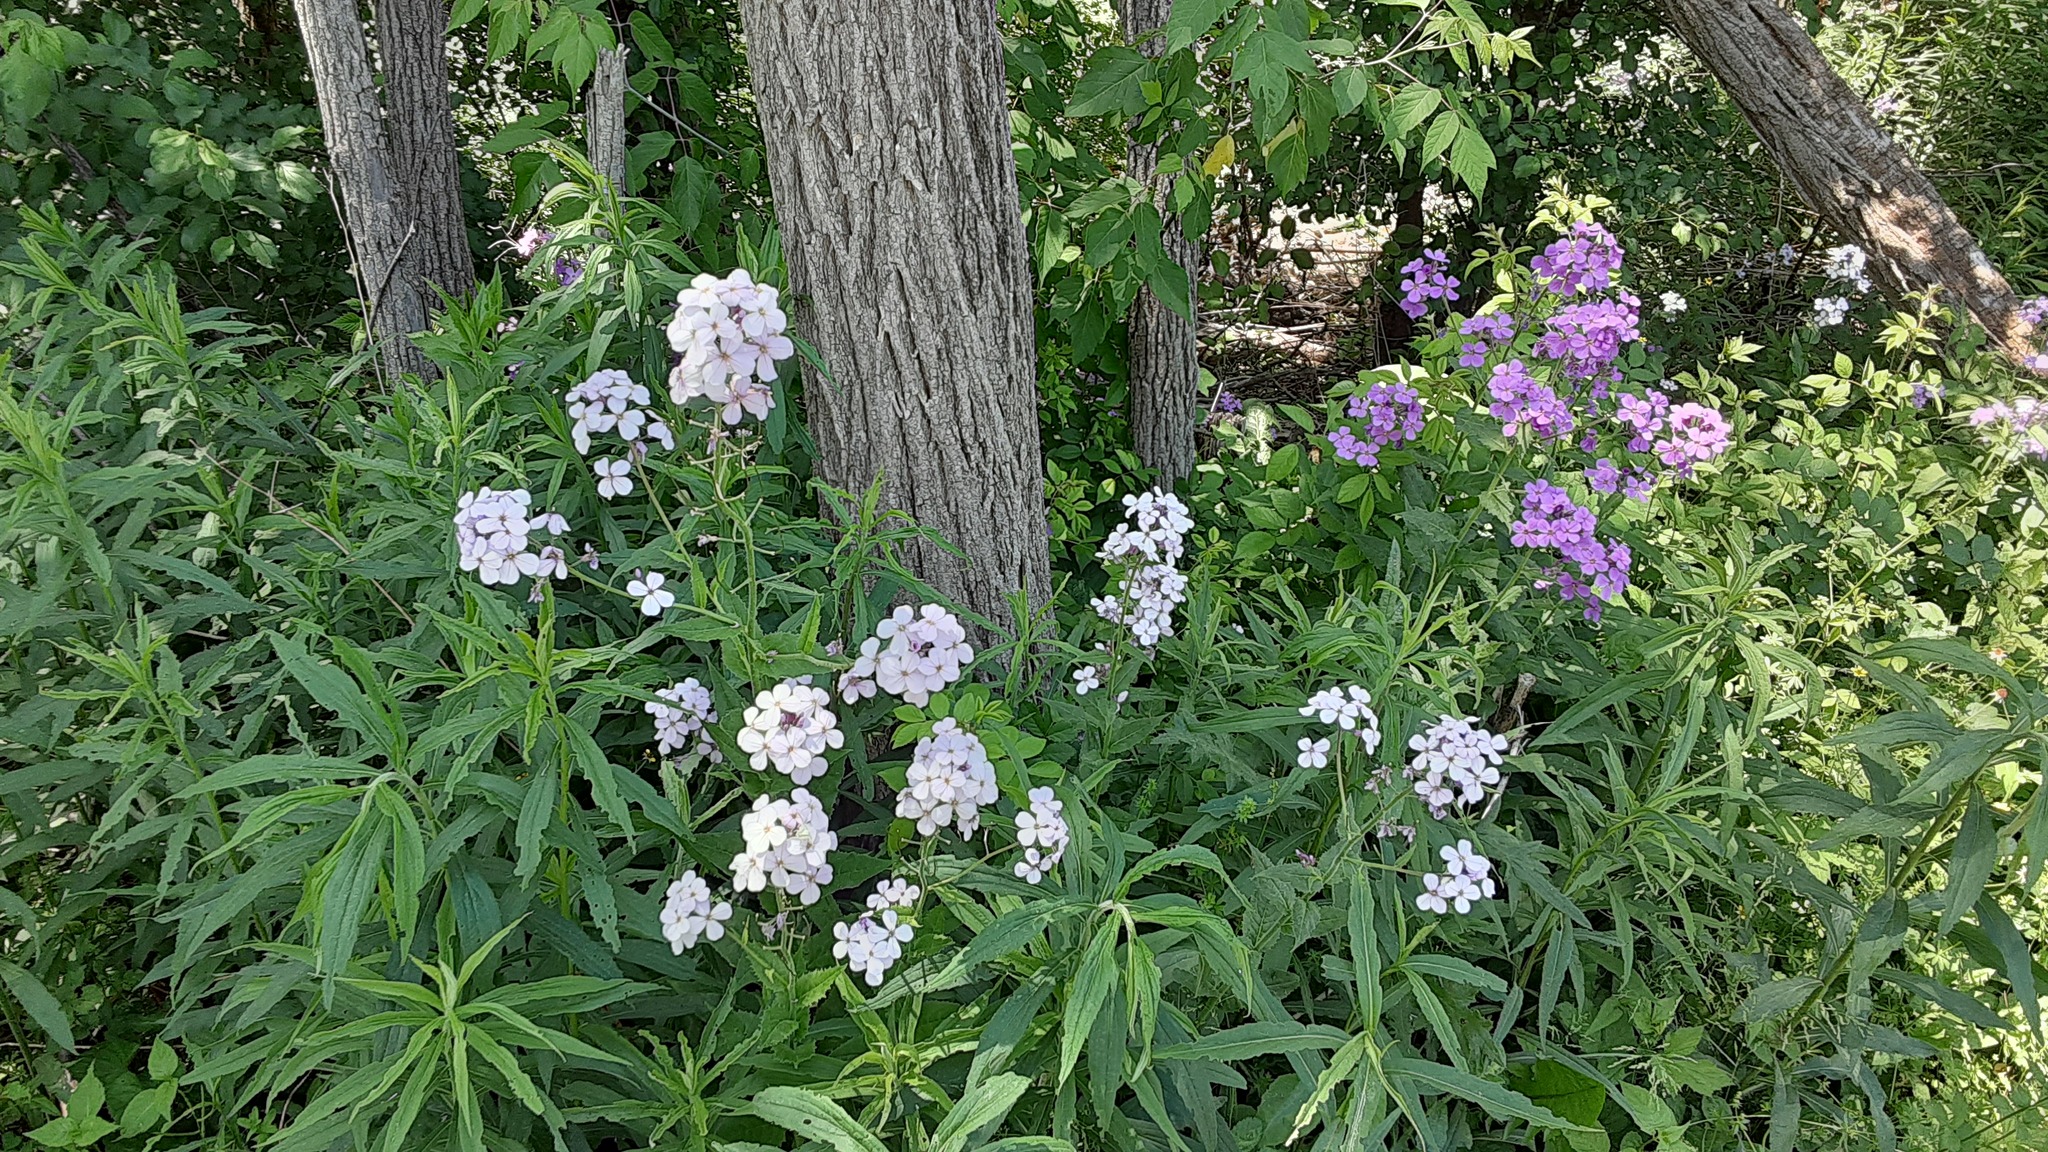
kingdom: Plantae
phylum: Tracheophyta
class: Magnoliopsida
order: Brassicales
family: Brassicaceae
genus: Hesperis
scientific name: Hesperis matronalis
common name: Dame's-violet
